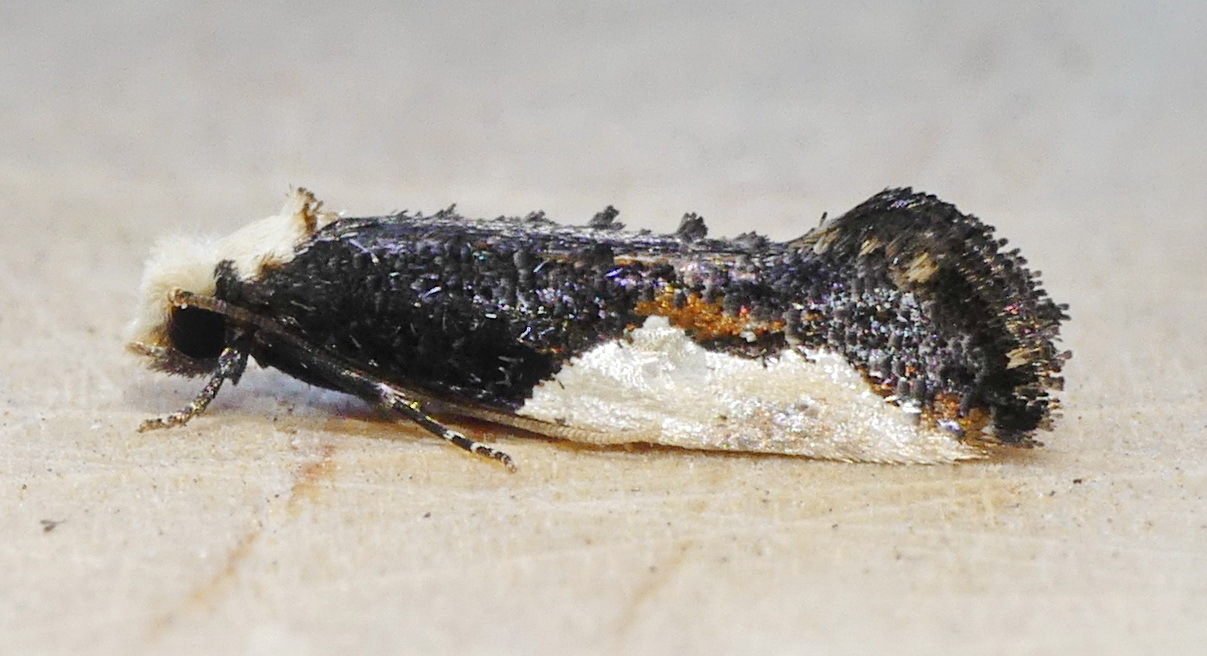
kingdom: Animalia
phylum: Arthropoda
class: Insecta
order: Lepidoptera
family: Tineidae
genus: Monopis
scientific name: Monopis longella
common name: Pavlovski's monopis moth
